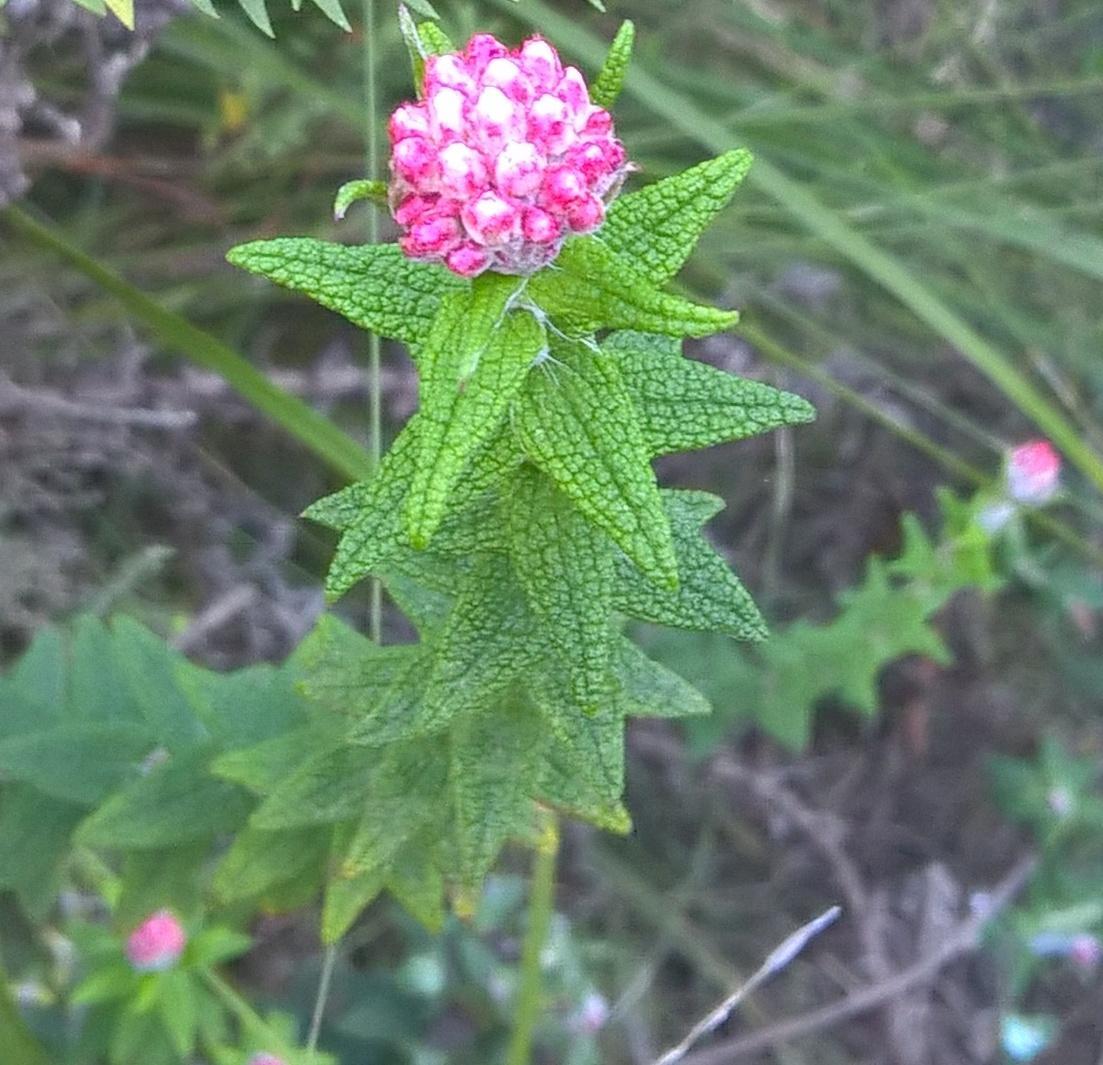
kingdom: Plantae
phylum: Tracheophyta
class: Magnoliopsida
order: Asterales
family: Asteraceae
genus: Helichrysum
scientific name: Helichrysum felinum
